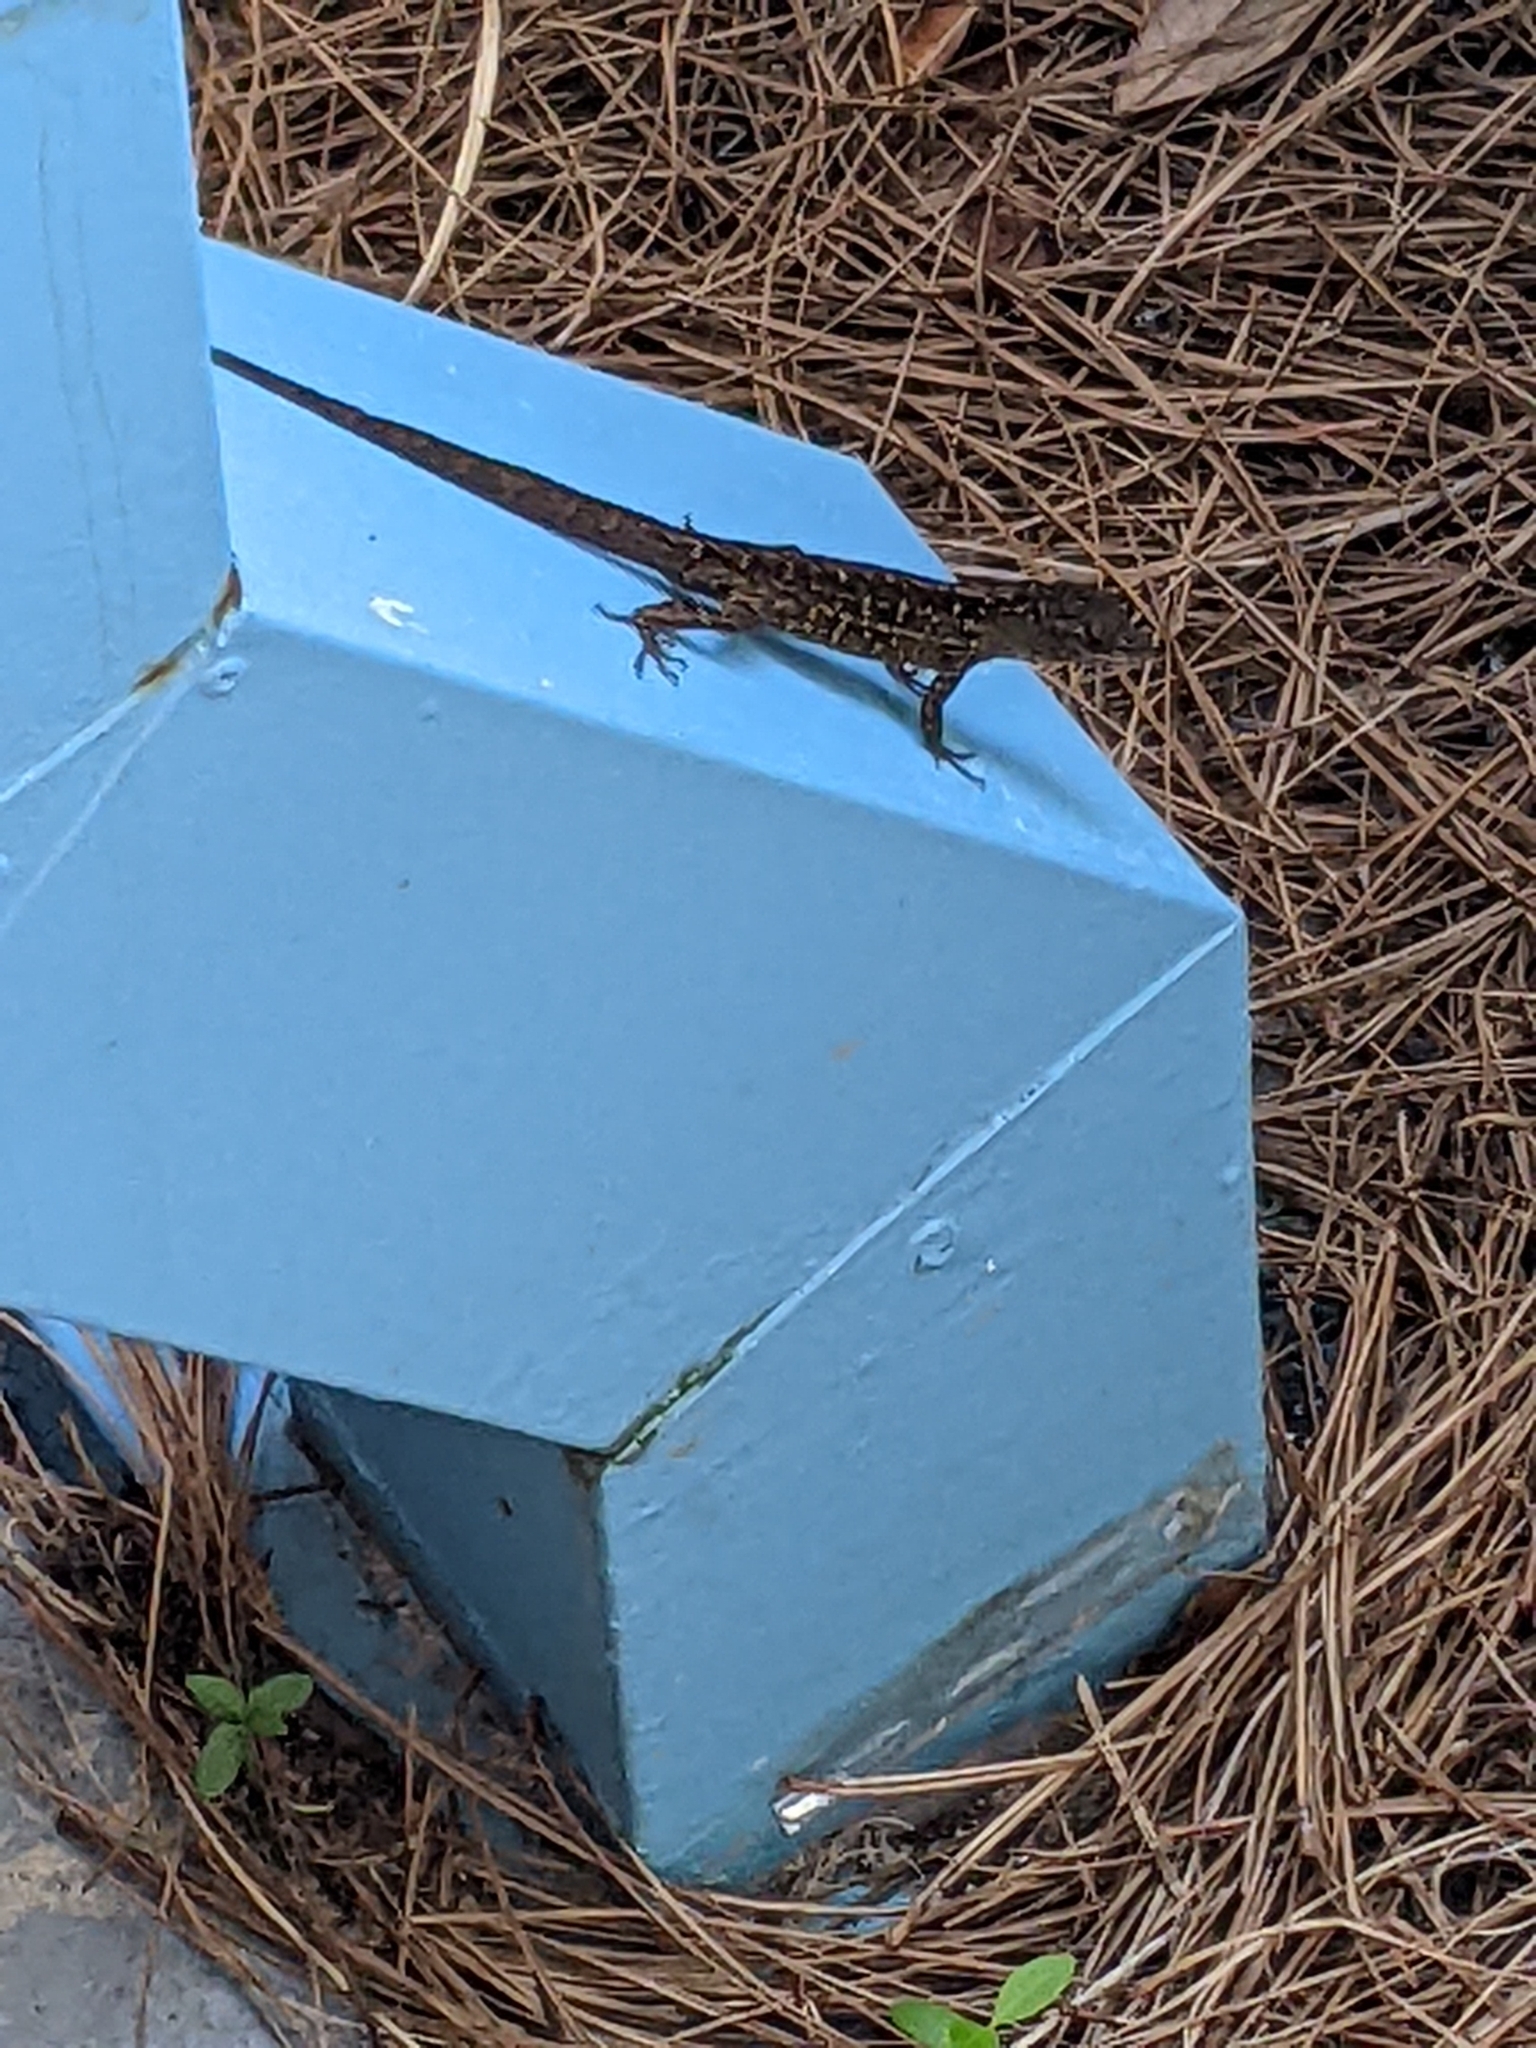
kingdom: Animalia
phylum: Chordata
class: Squamata
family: Dactyloidae
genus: Anolis
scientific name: Anolis sagrei
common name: Brown anole
